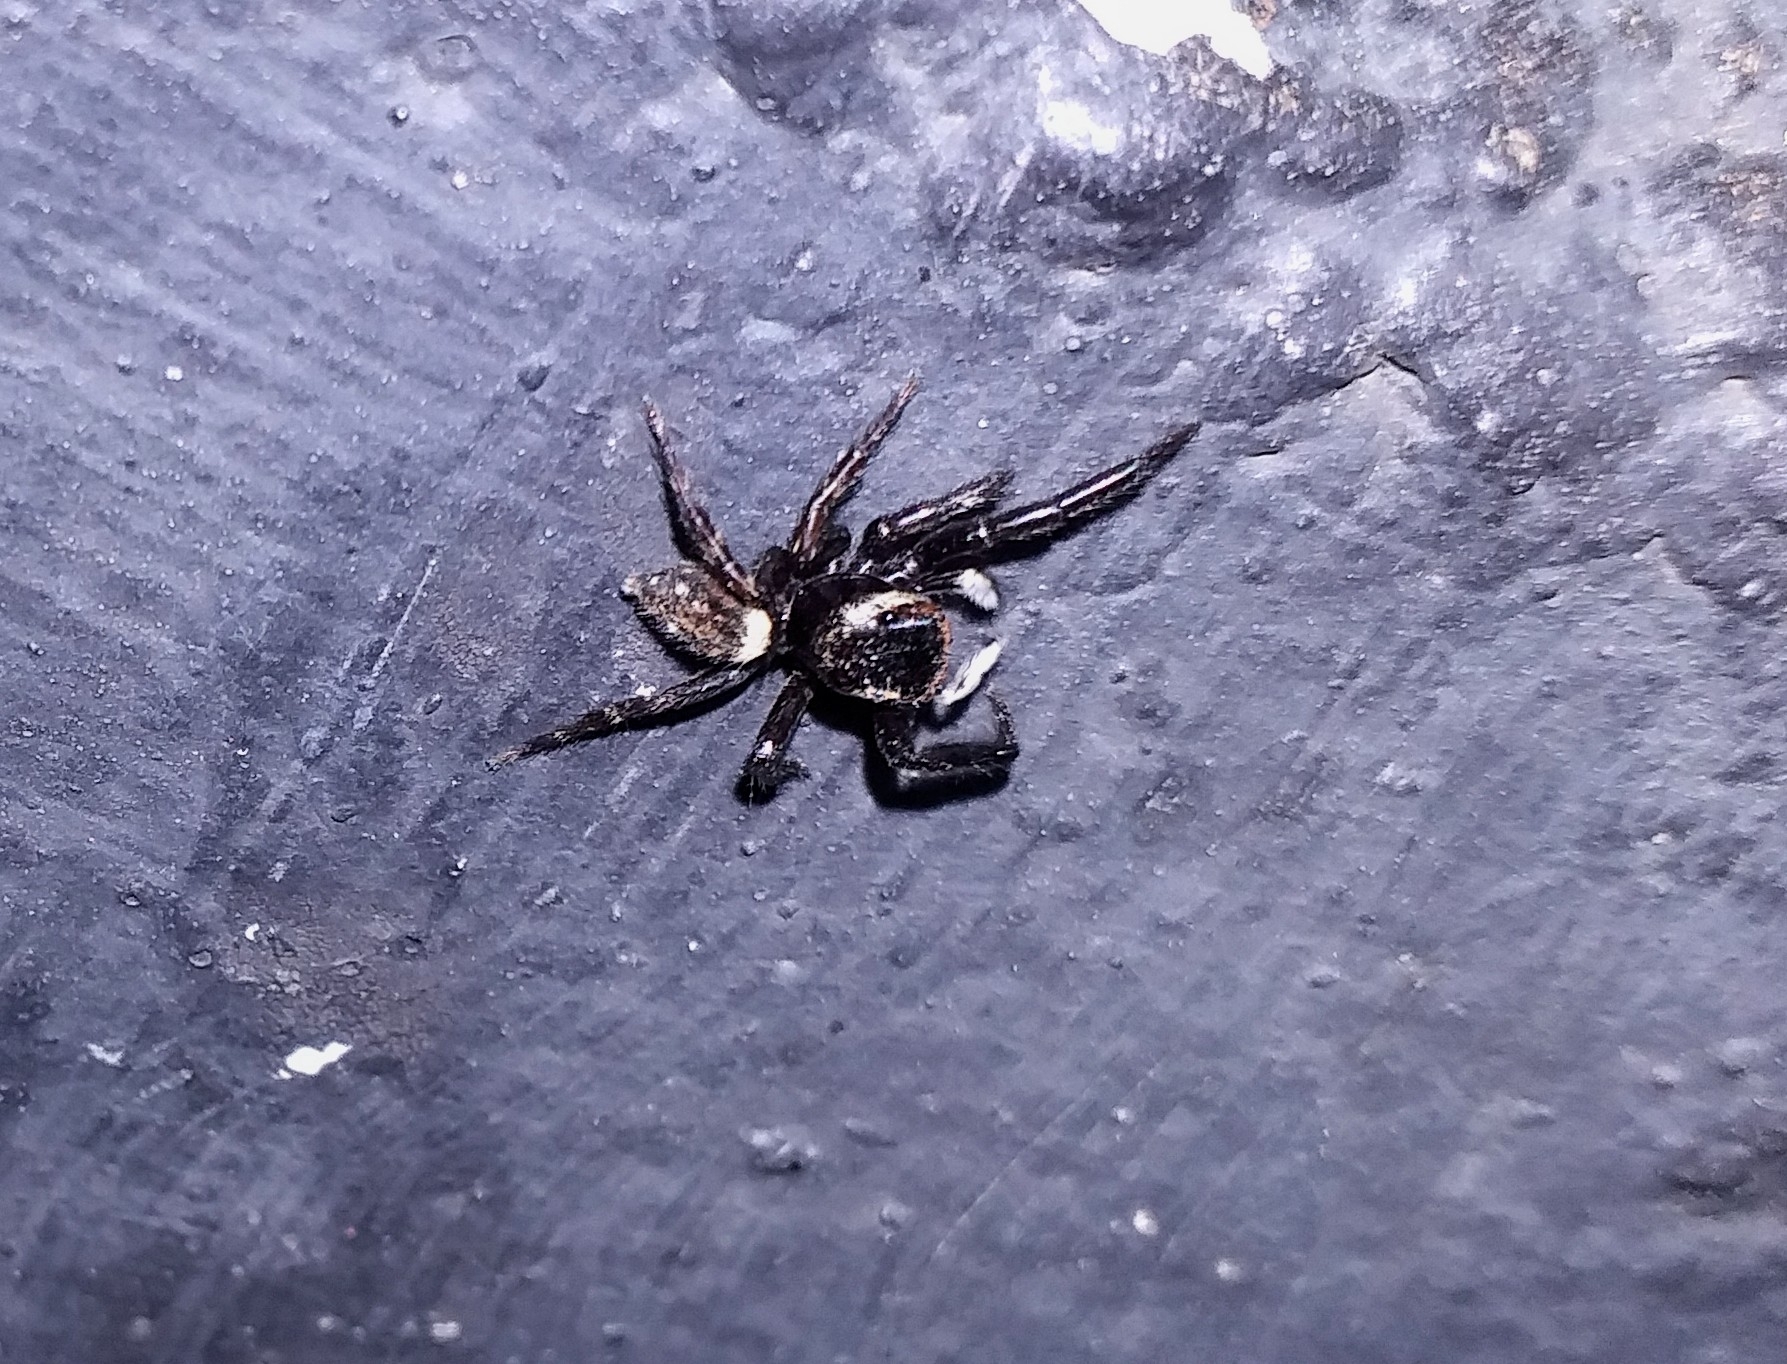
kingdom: Animalia
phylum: Arthropoda
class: Arachnida
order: Araneae
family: Salticidae
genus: Hasarius
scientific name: Hasarius adansoni
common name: Jumping spider
